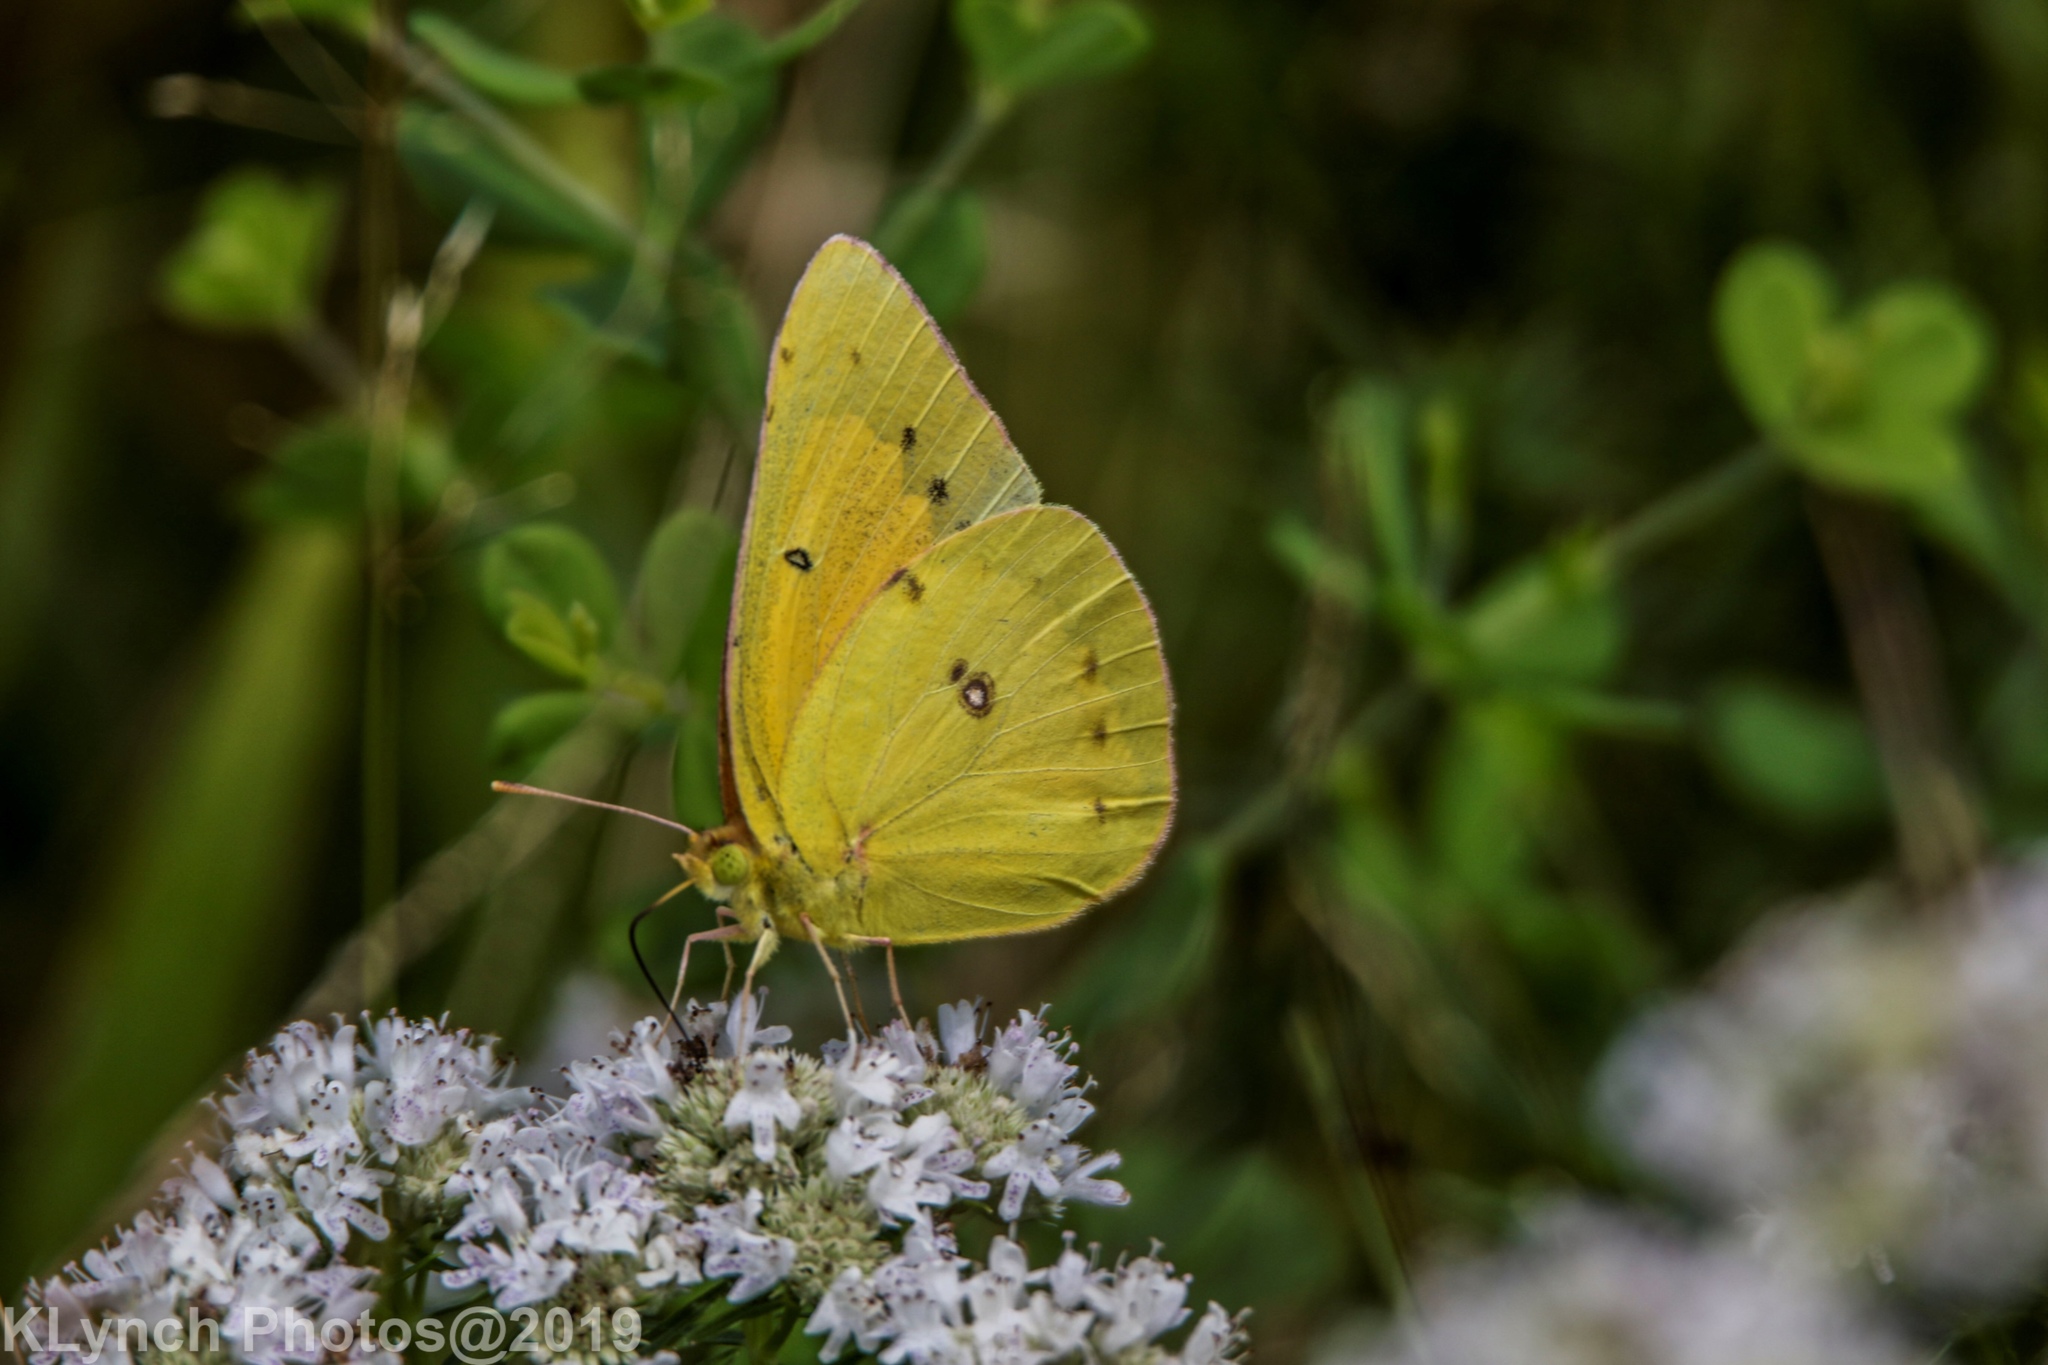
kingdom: Animalia
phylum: Arthropoda
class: Insecta
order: Lepidoptera
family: Pieridae
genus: Colias
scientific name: Colias philodice
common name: Clouded sulphur
